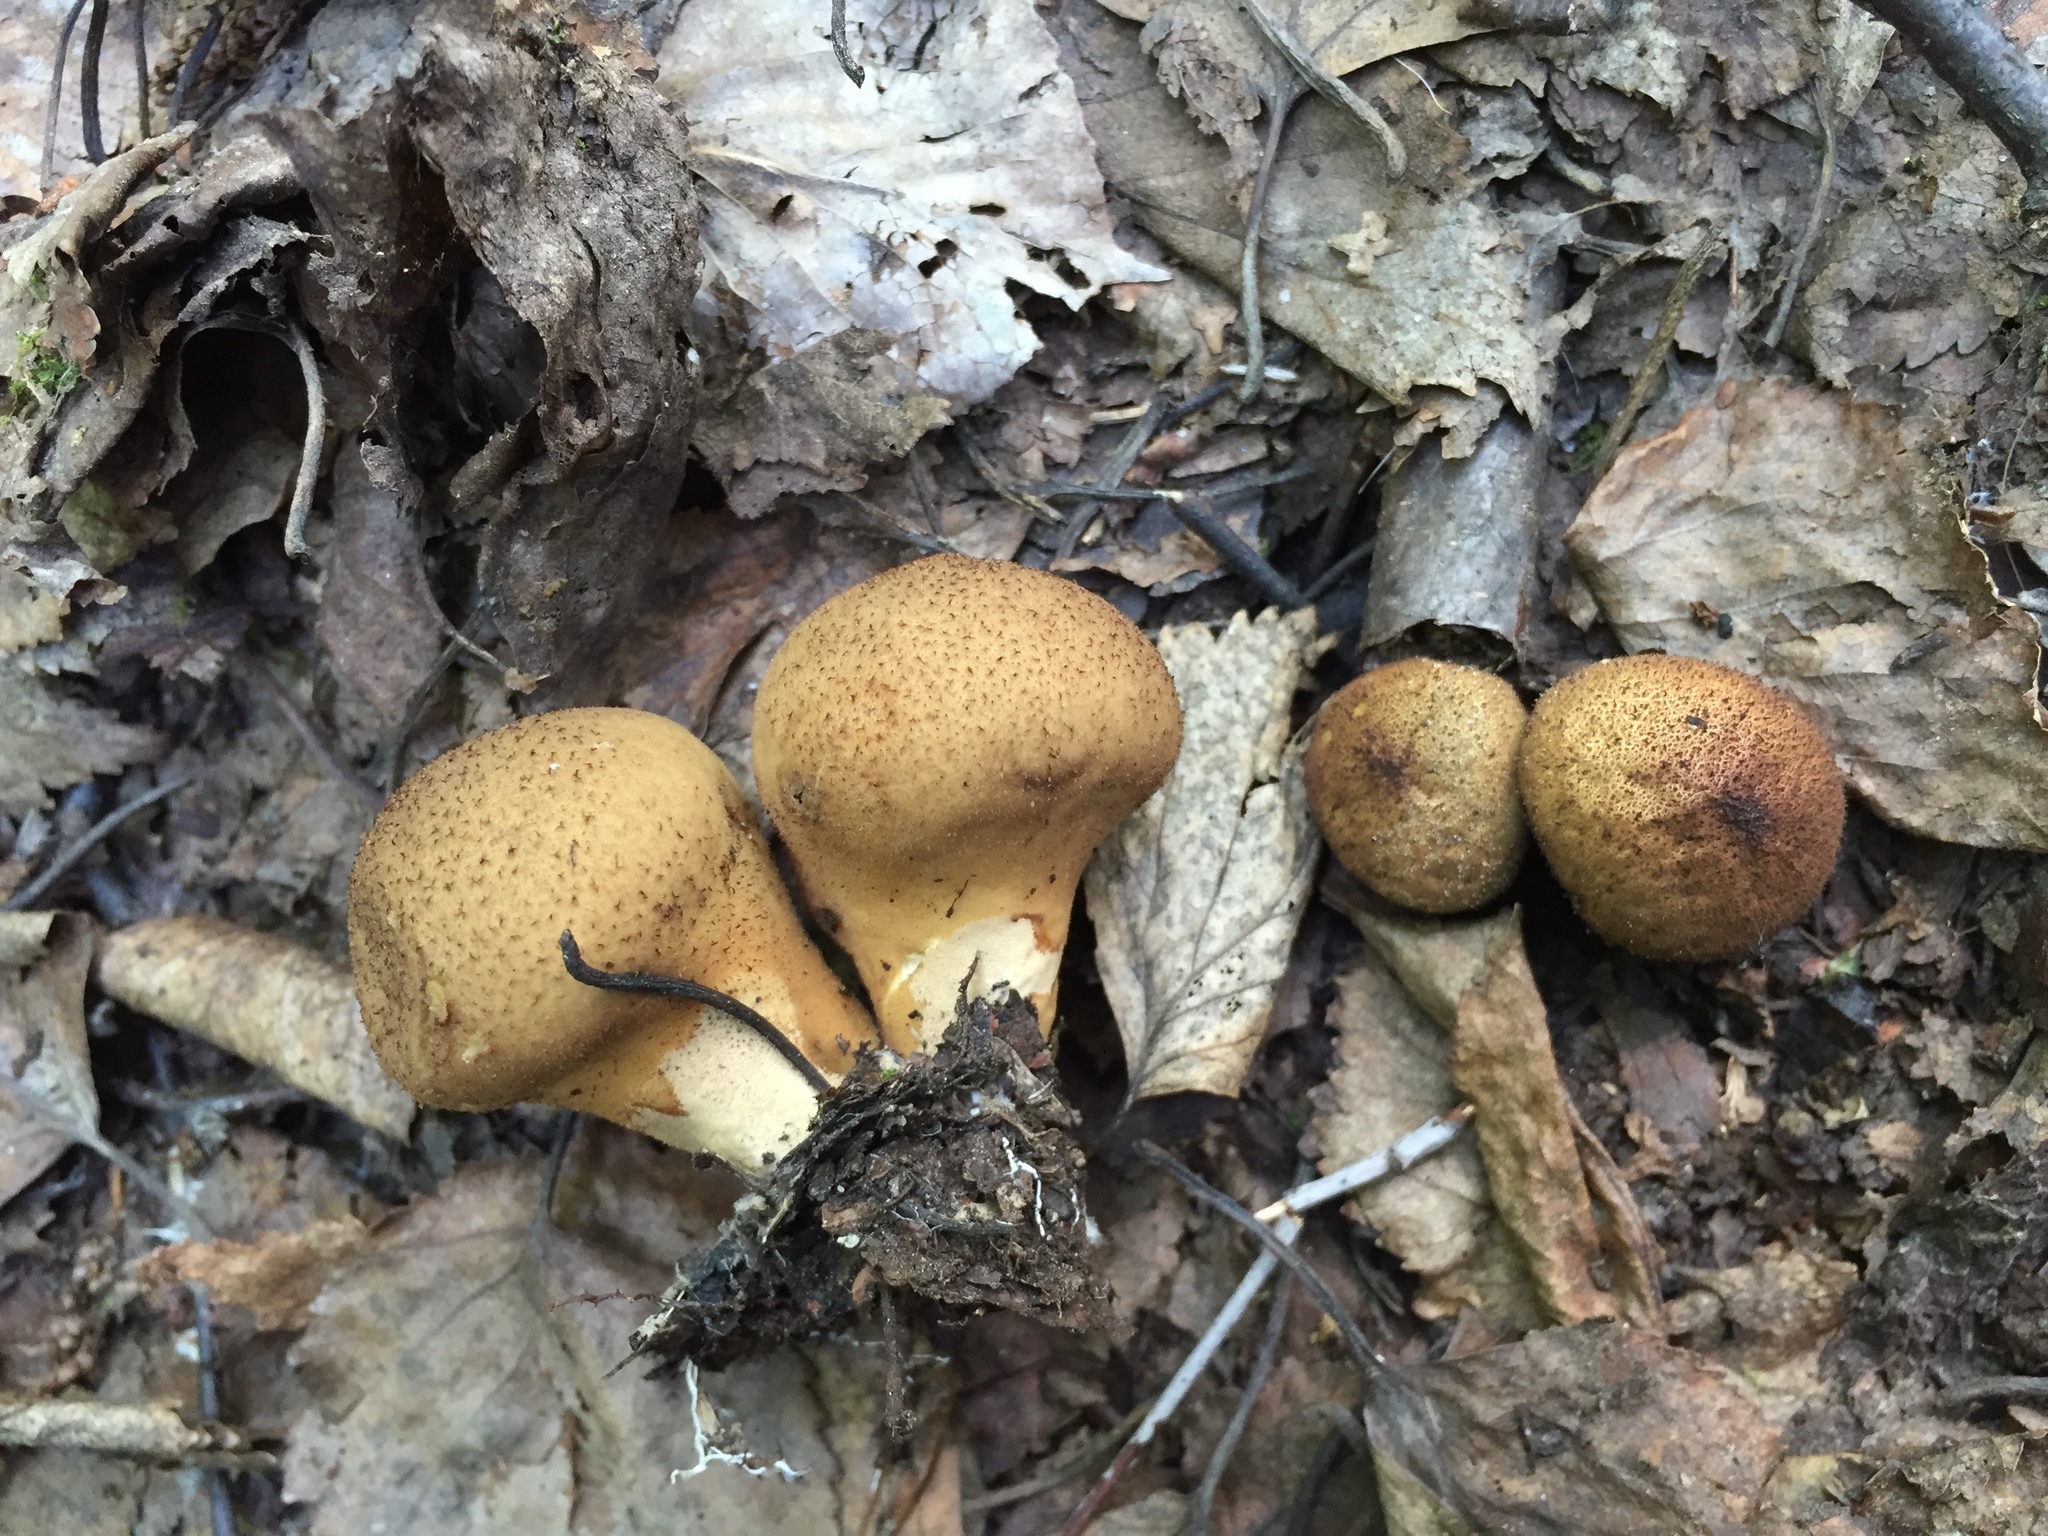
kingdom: Fungi
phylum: Basidiomycota
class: Agaricomycetes
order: Agaricales
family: Lycoperdaceae
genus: Apioperdon
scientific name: Apioperdon pyriforme
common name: Pear-shaped puffball
